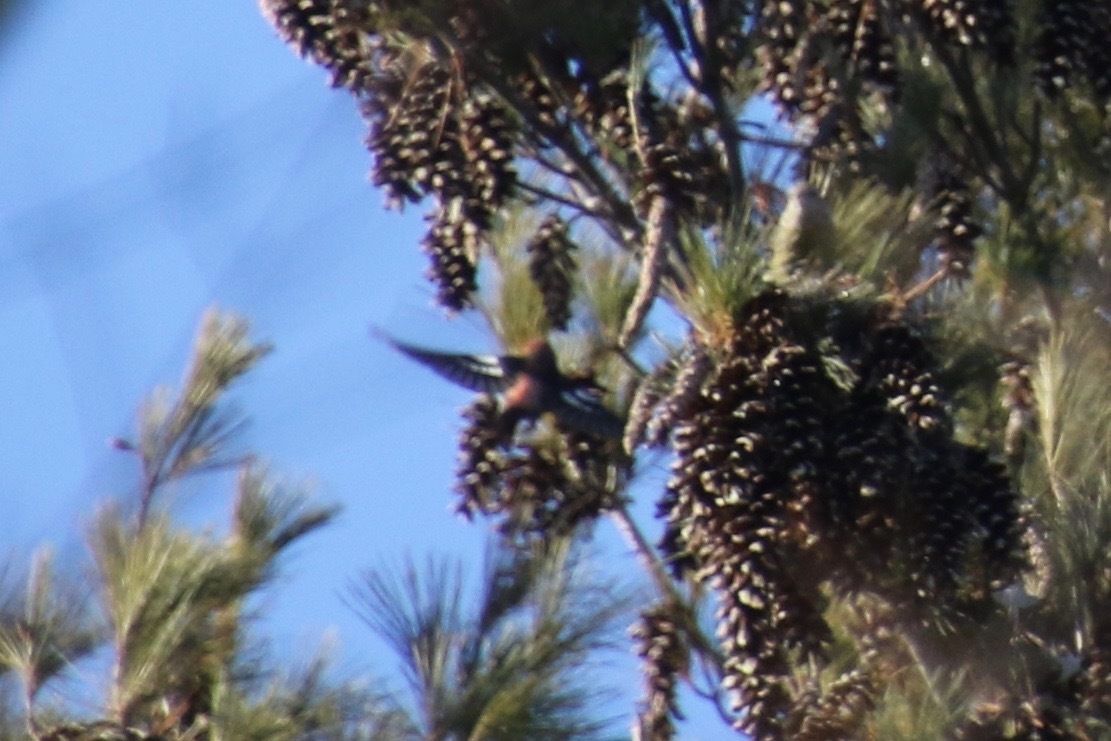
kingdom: Animalia
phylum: Chordata
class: Aves
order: Passeriformes
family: Fringillidae
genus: Loxia
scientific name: Loxia leucoptera
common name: Two-barred crossbill
